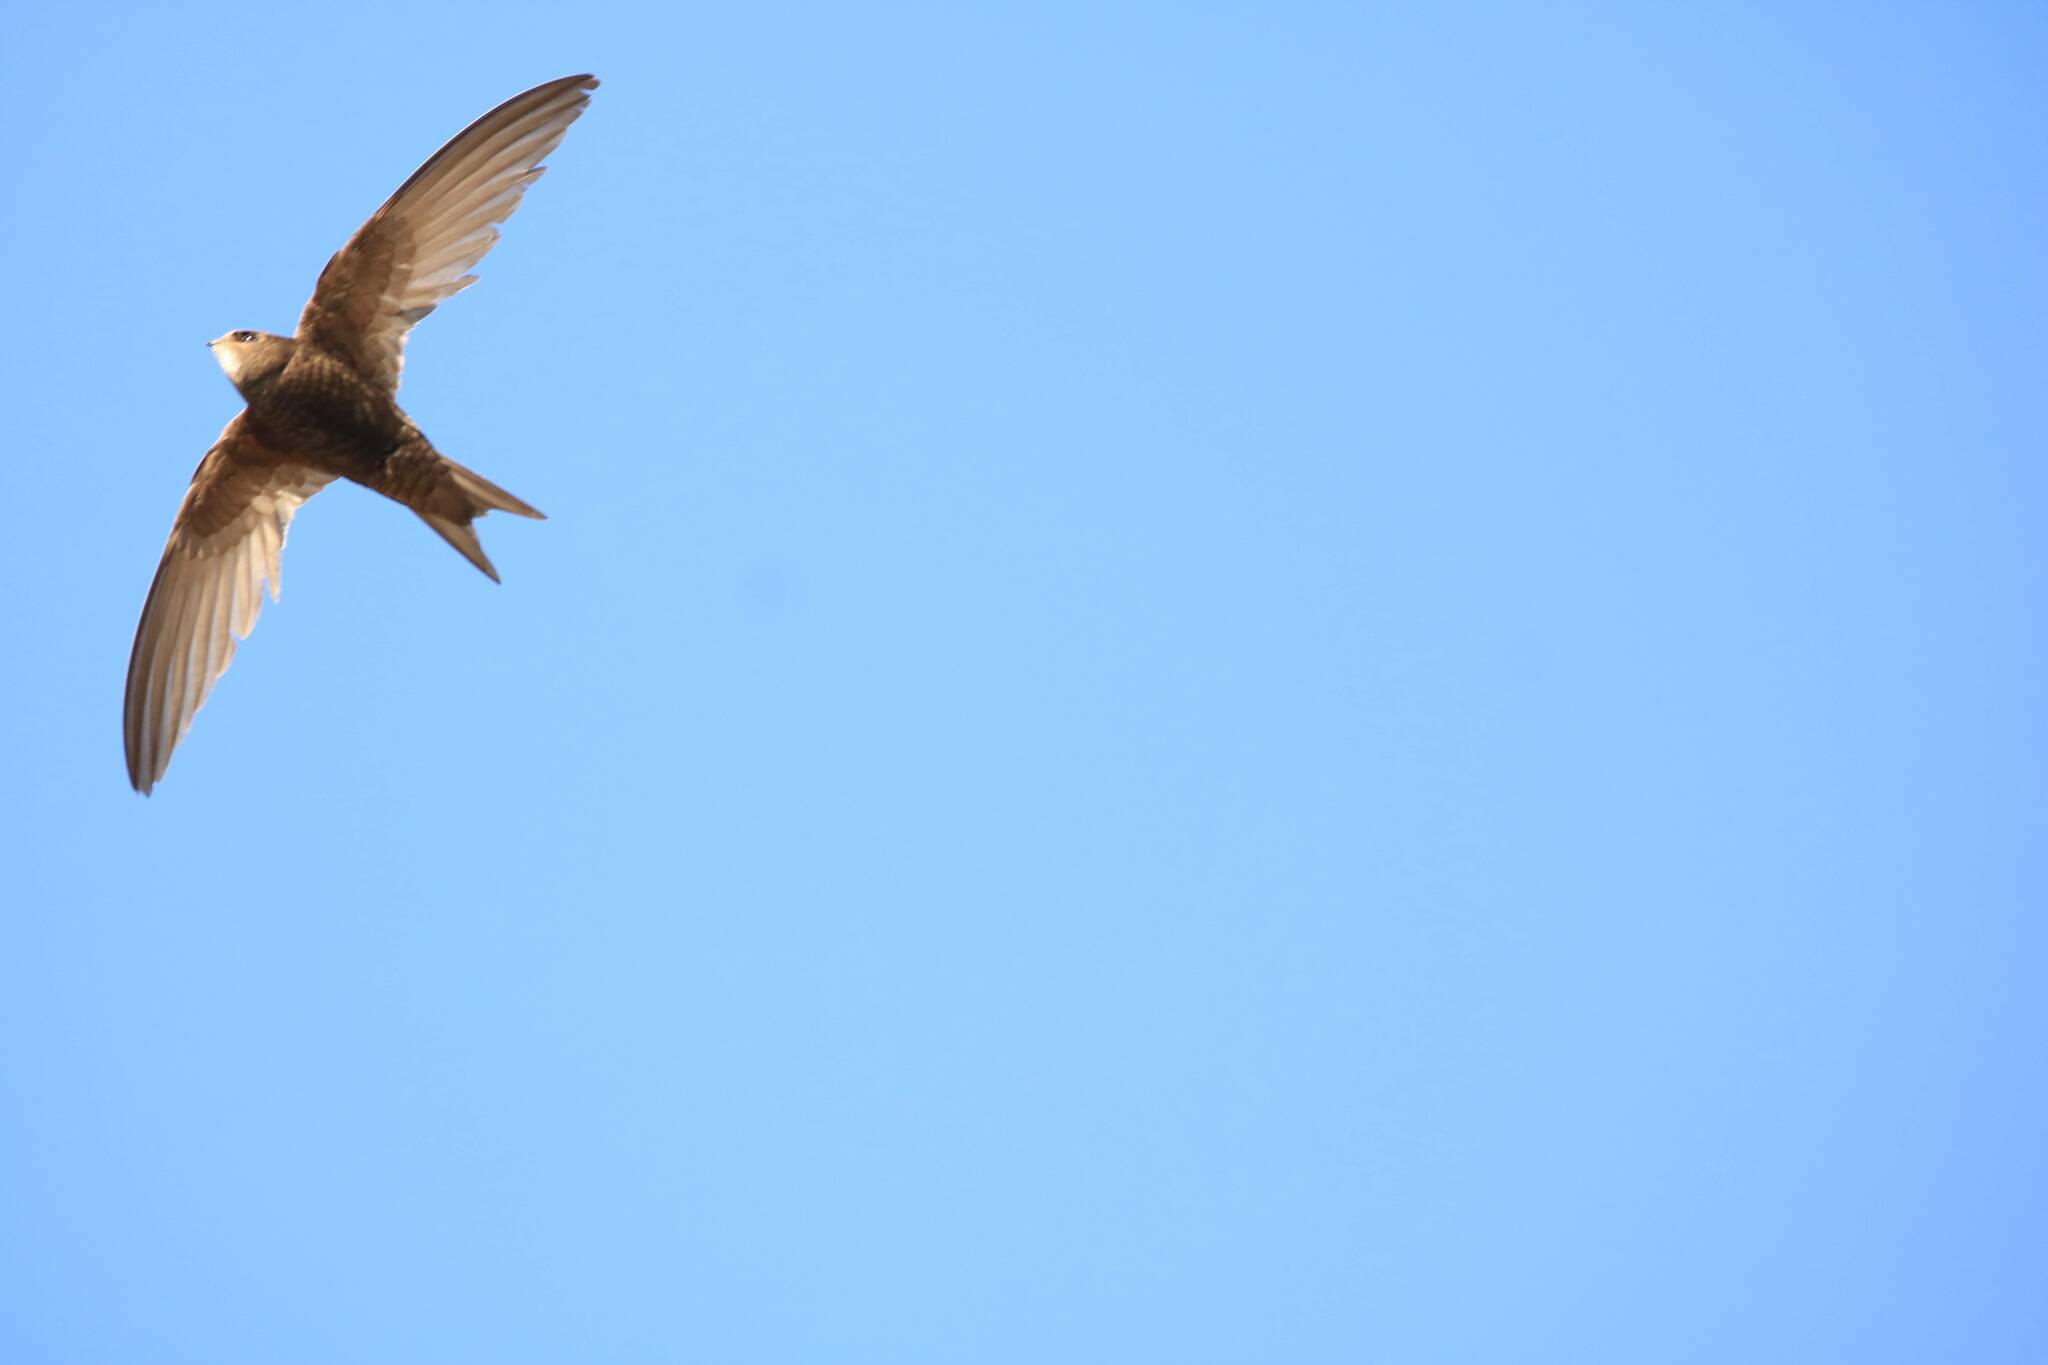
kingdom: Animalia
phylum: Chordata
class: Aves
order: Apodiformes
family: Apodidae
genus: Apus
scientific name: Apus apus
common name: Common swift
